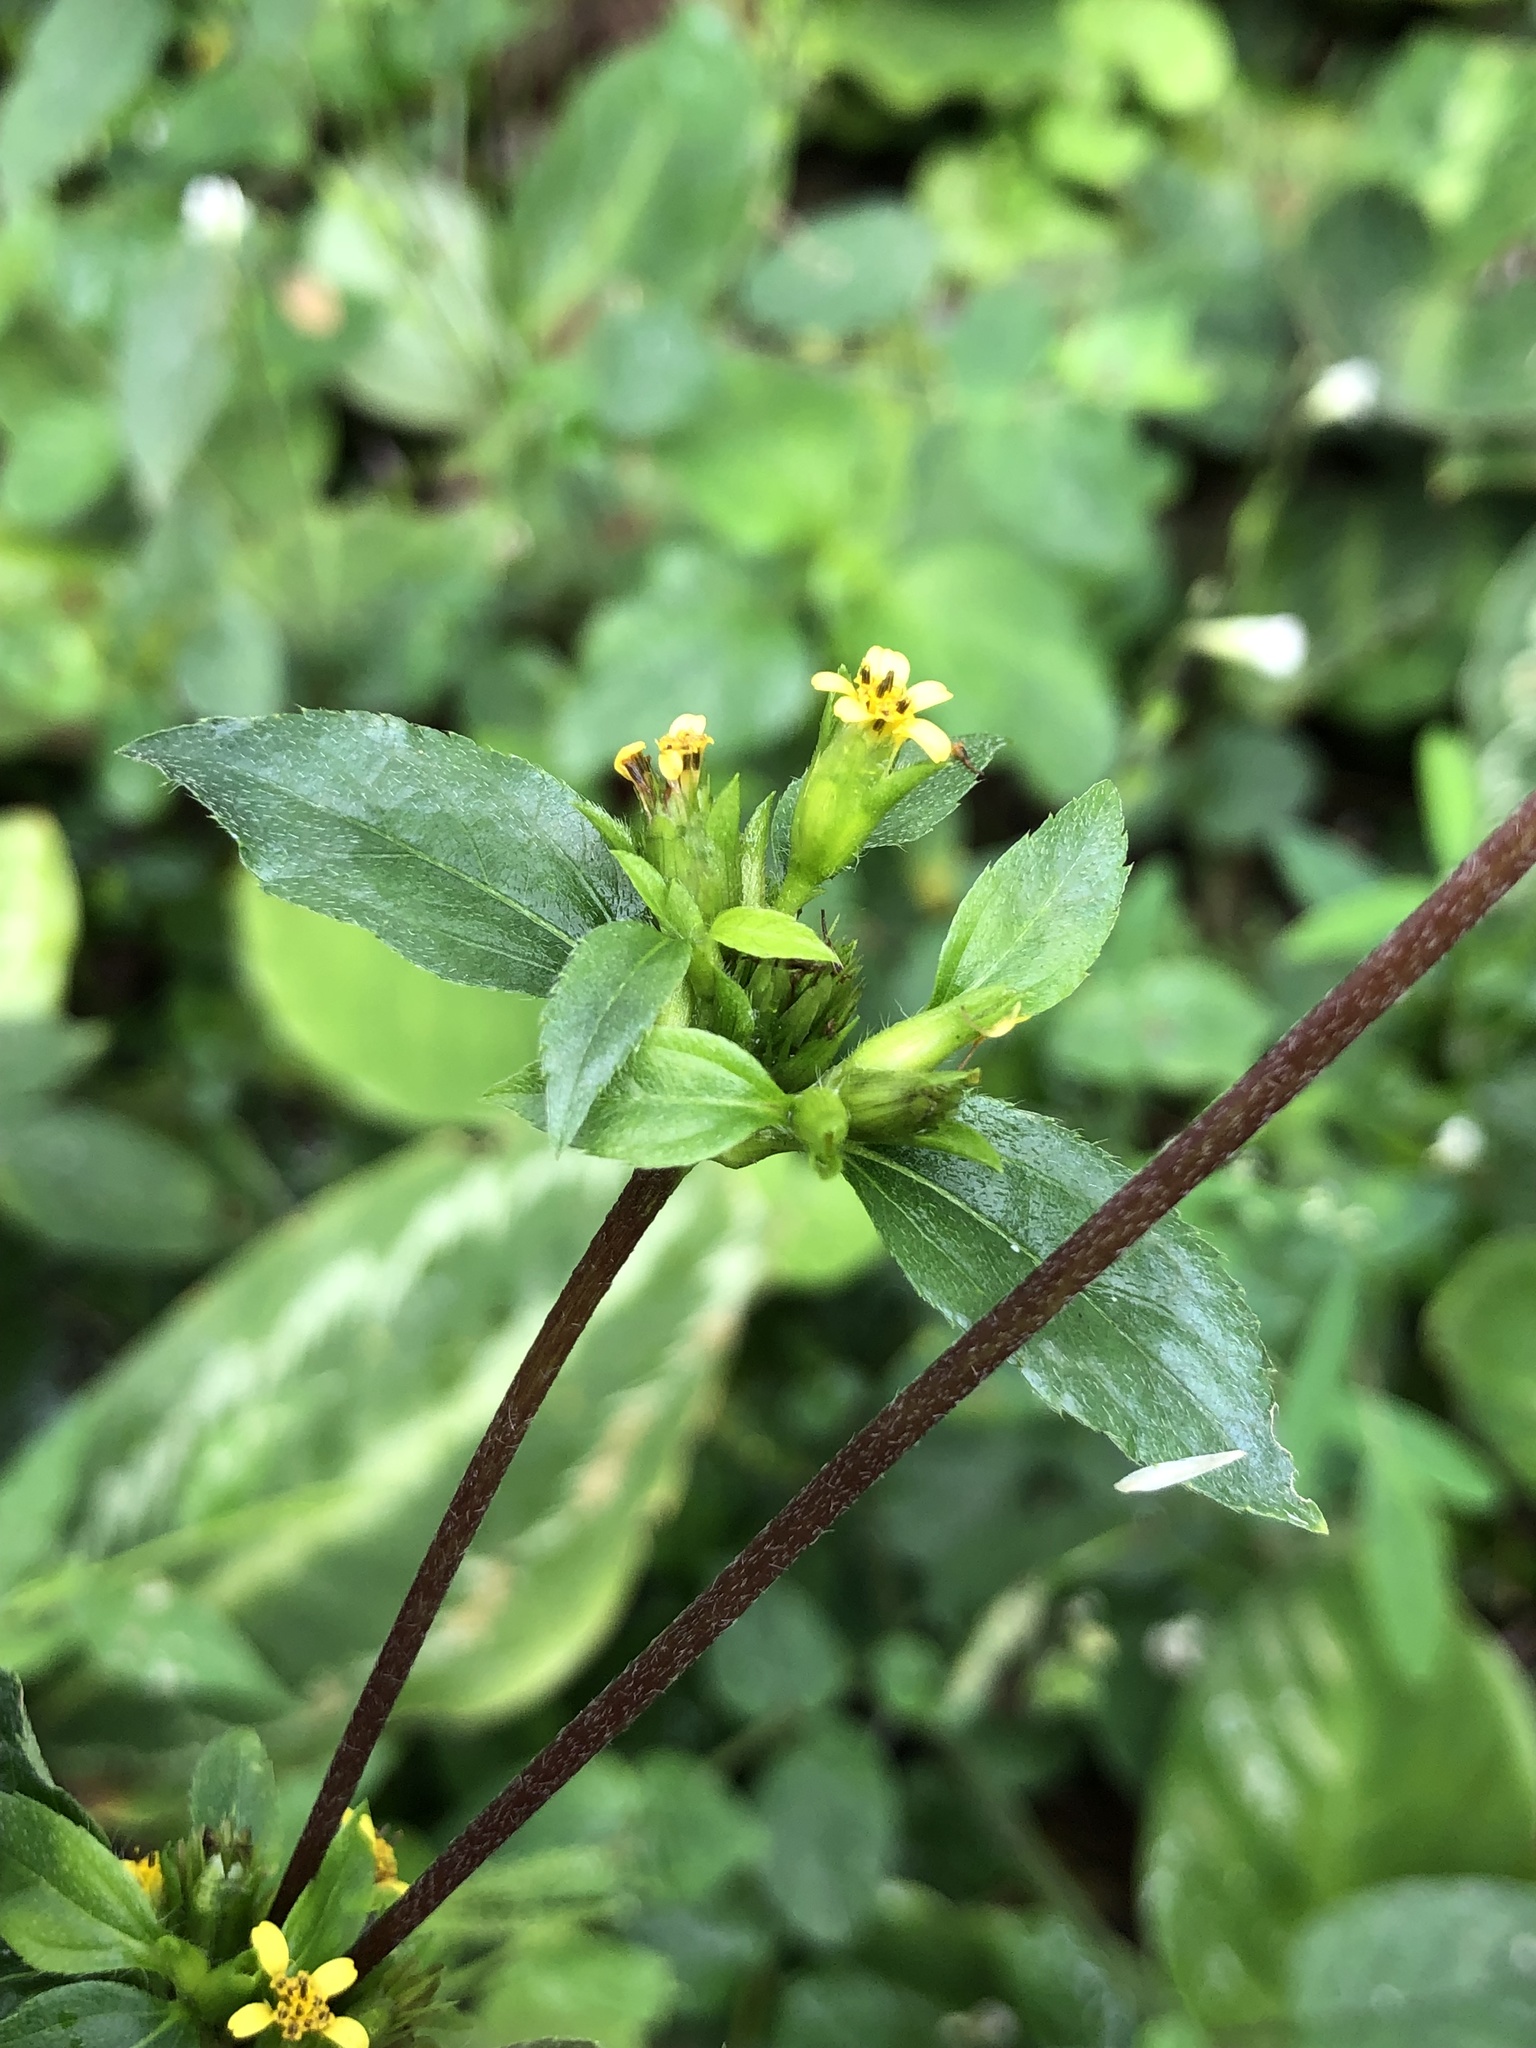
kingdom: Plantae
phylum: Tracheophyta
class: Magnoliopsida
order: Asterales
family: Asteraceae
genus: Synedrella
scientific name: Synedrella nodiflora
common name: Nodeweed
